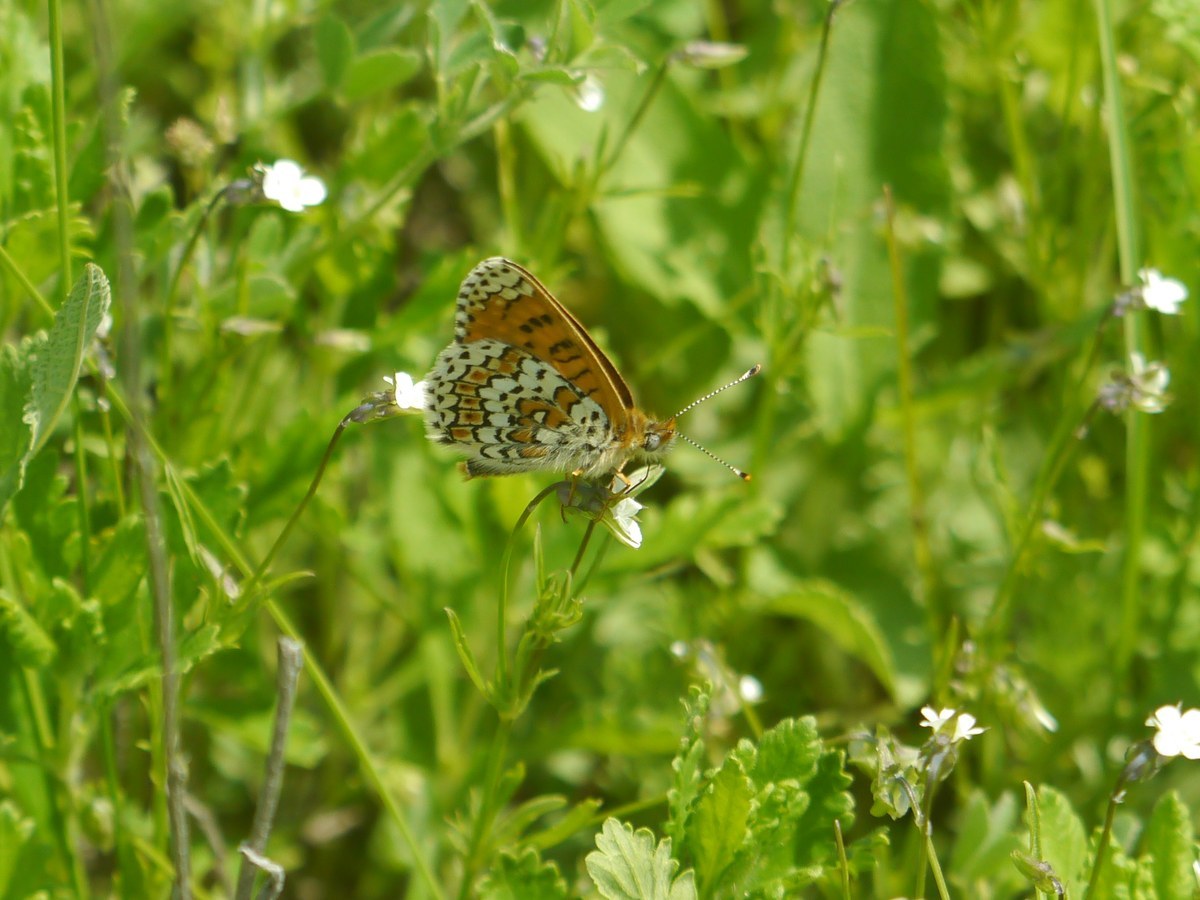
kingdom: Animalia
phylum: Arthropoda
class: Insecta
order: Lepidoptera
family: Nymphalidae
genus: Melitaea
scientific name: Melitaea cinxia
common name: Glanville fritillary
